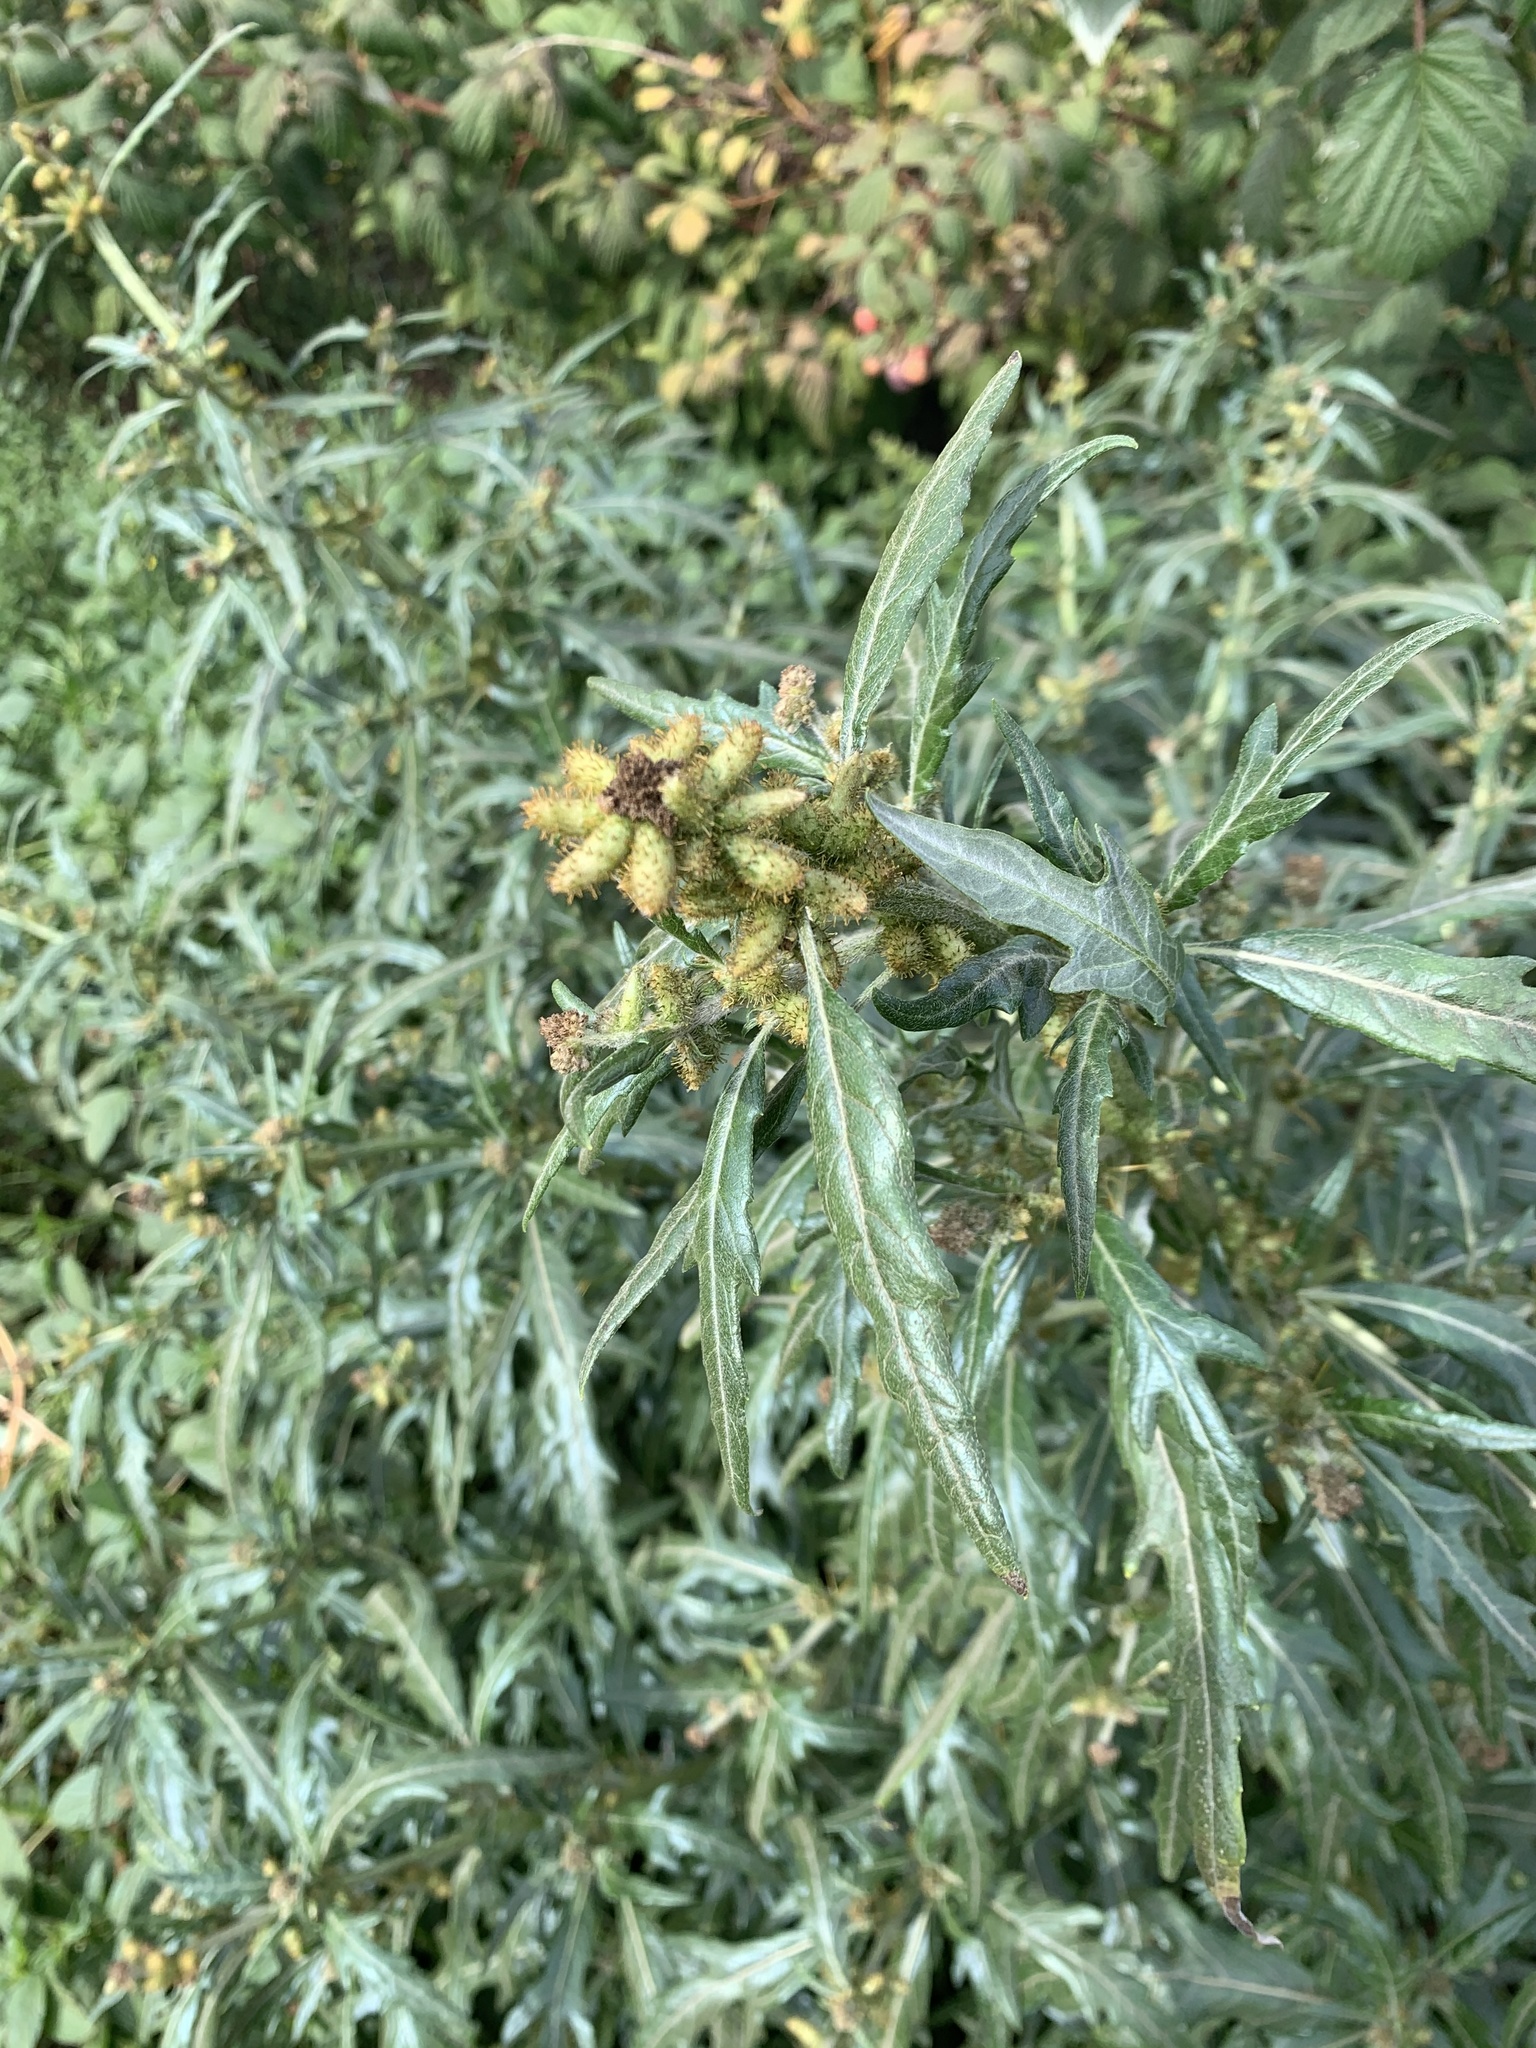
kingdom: Plantae
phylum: Tracheophyta
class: Magnoliopsida
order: Asterales
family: Asteraceae
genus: Xanthium
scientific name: Xanthium spinosum
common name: Spiny cocklebur
